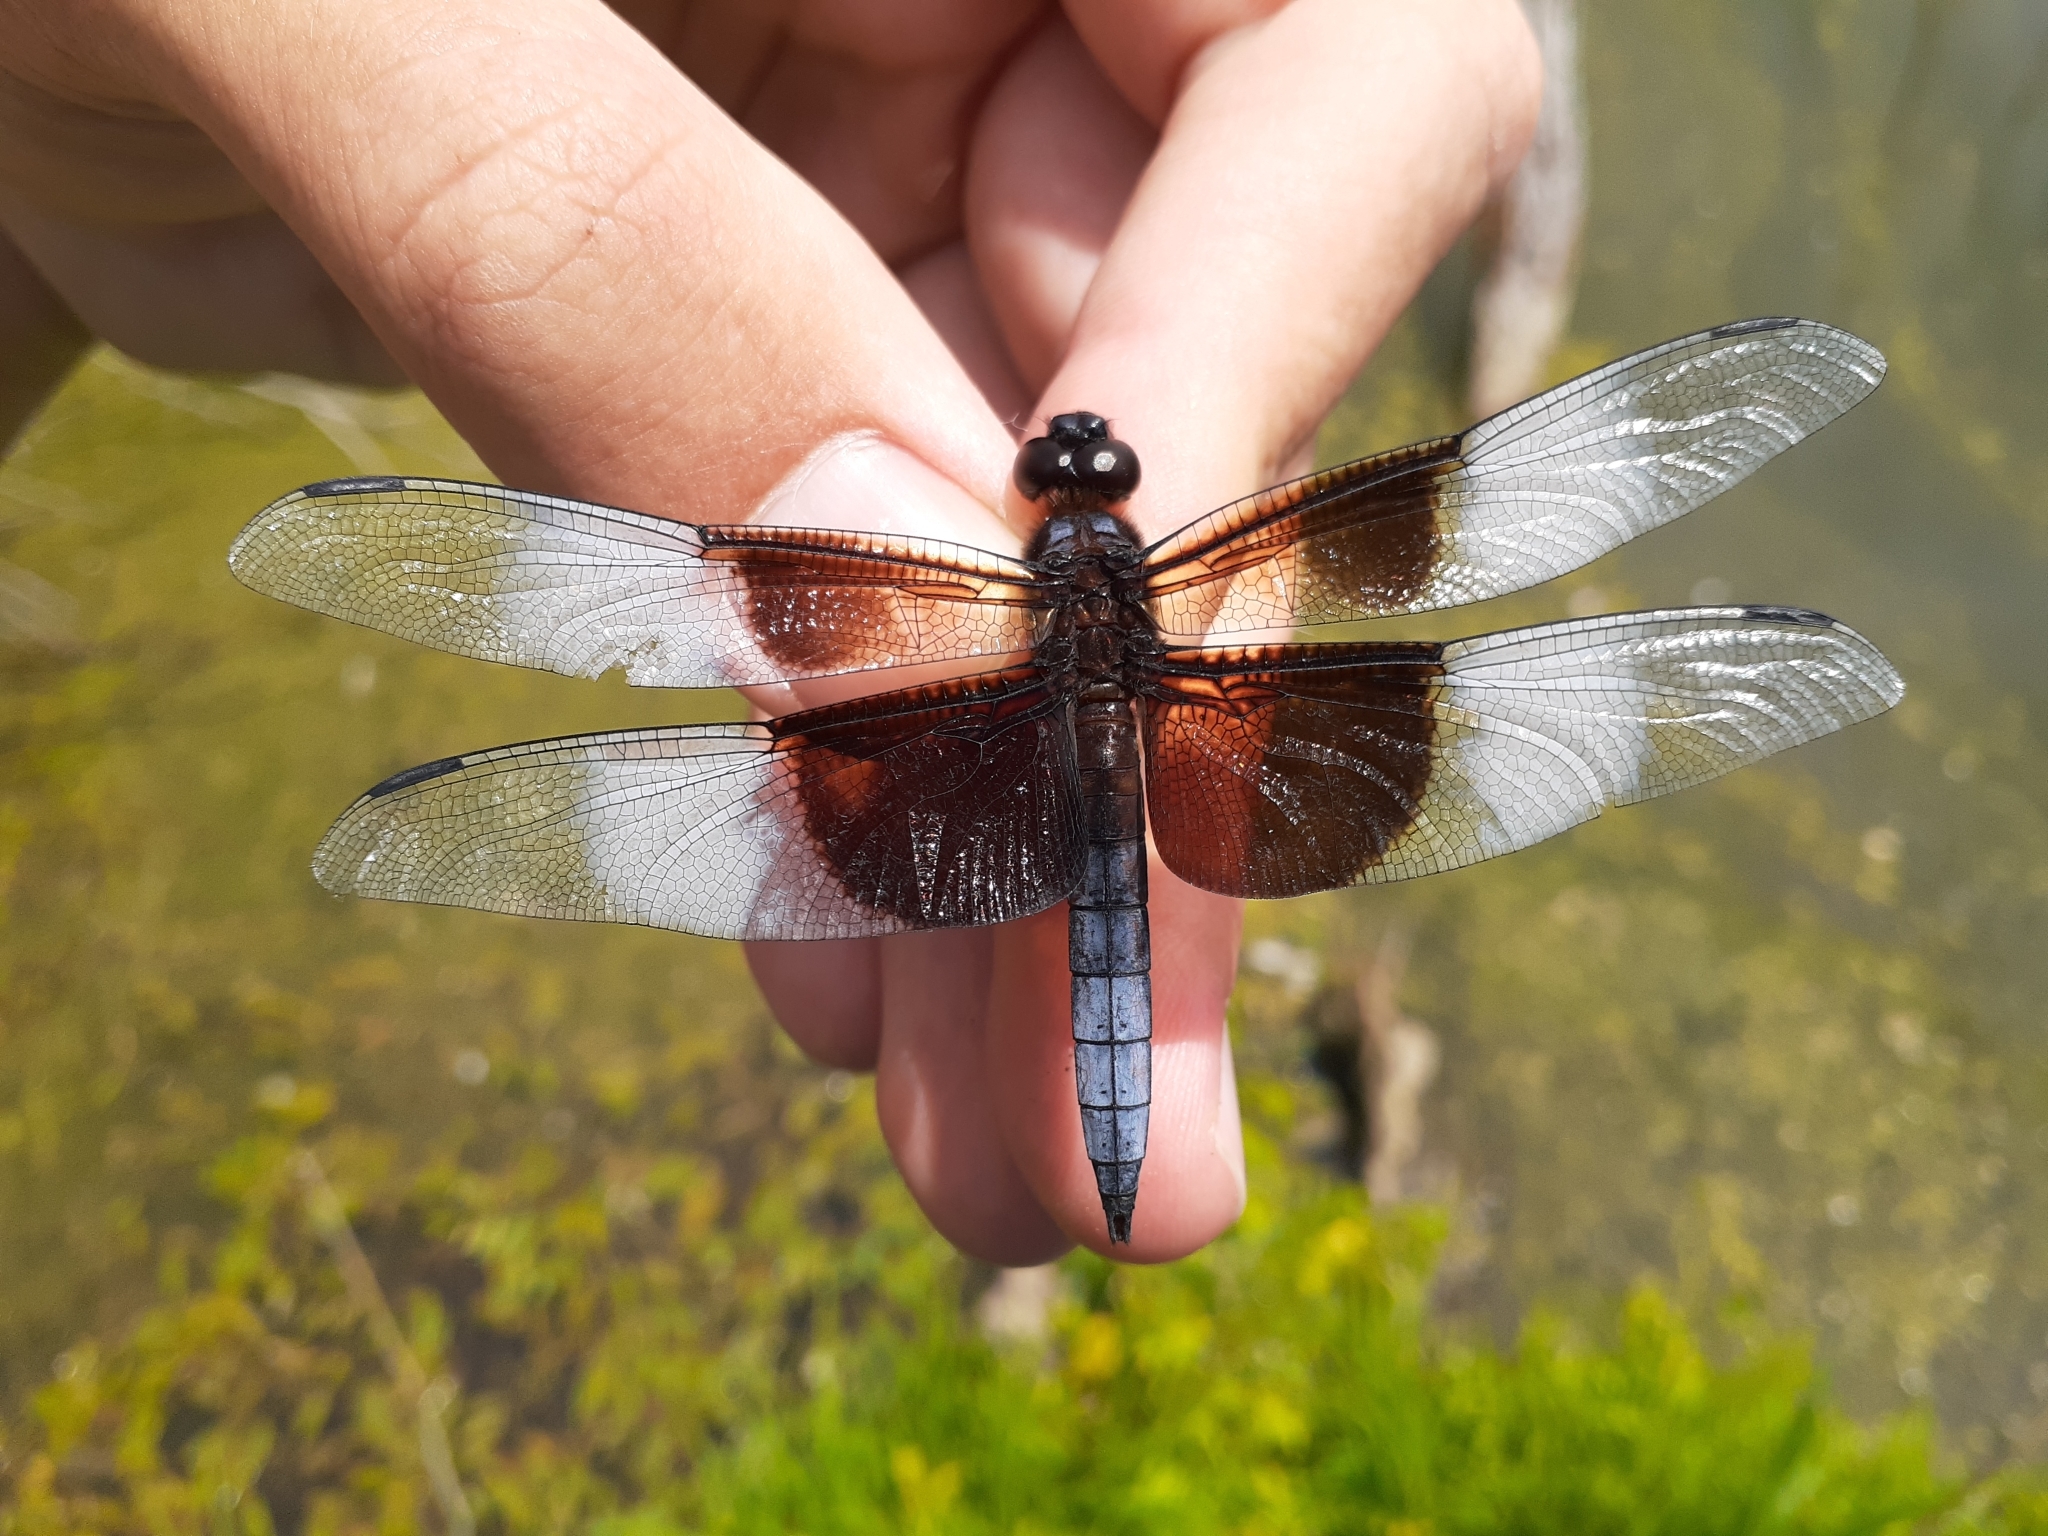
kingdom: Animalia
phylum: Arthropoda
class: Insecta
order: Odonata
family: Libellulidae
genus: Libellula
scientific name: Libellula luctuosa
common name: Widow skimmer
